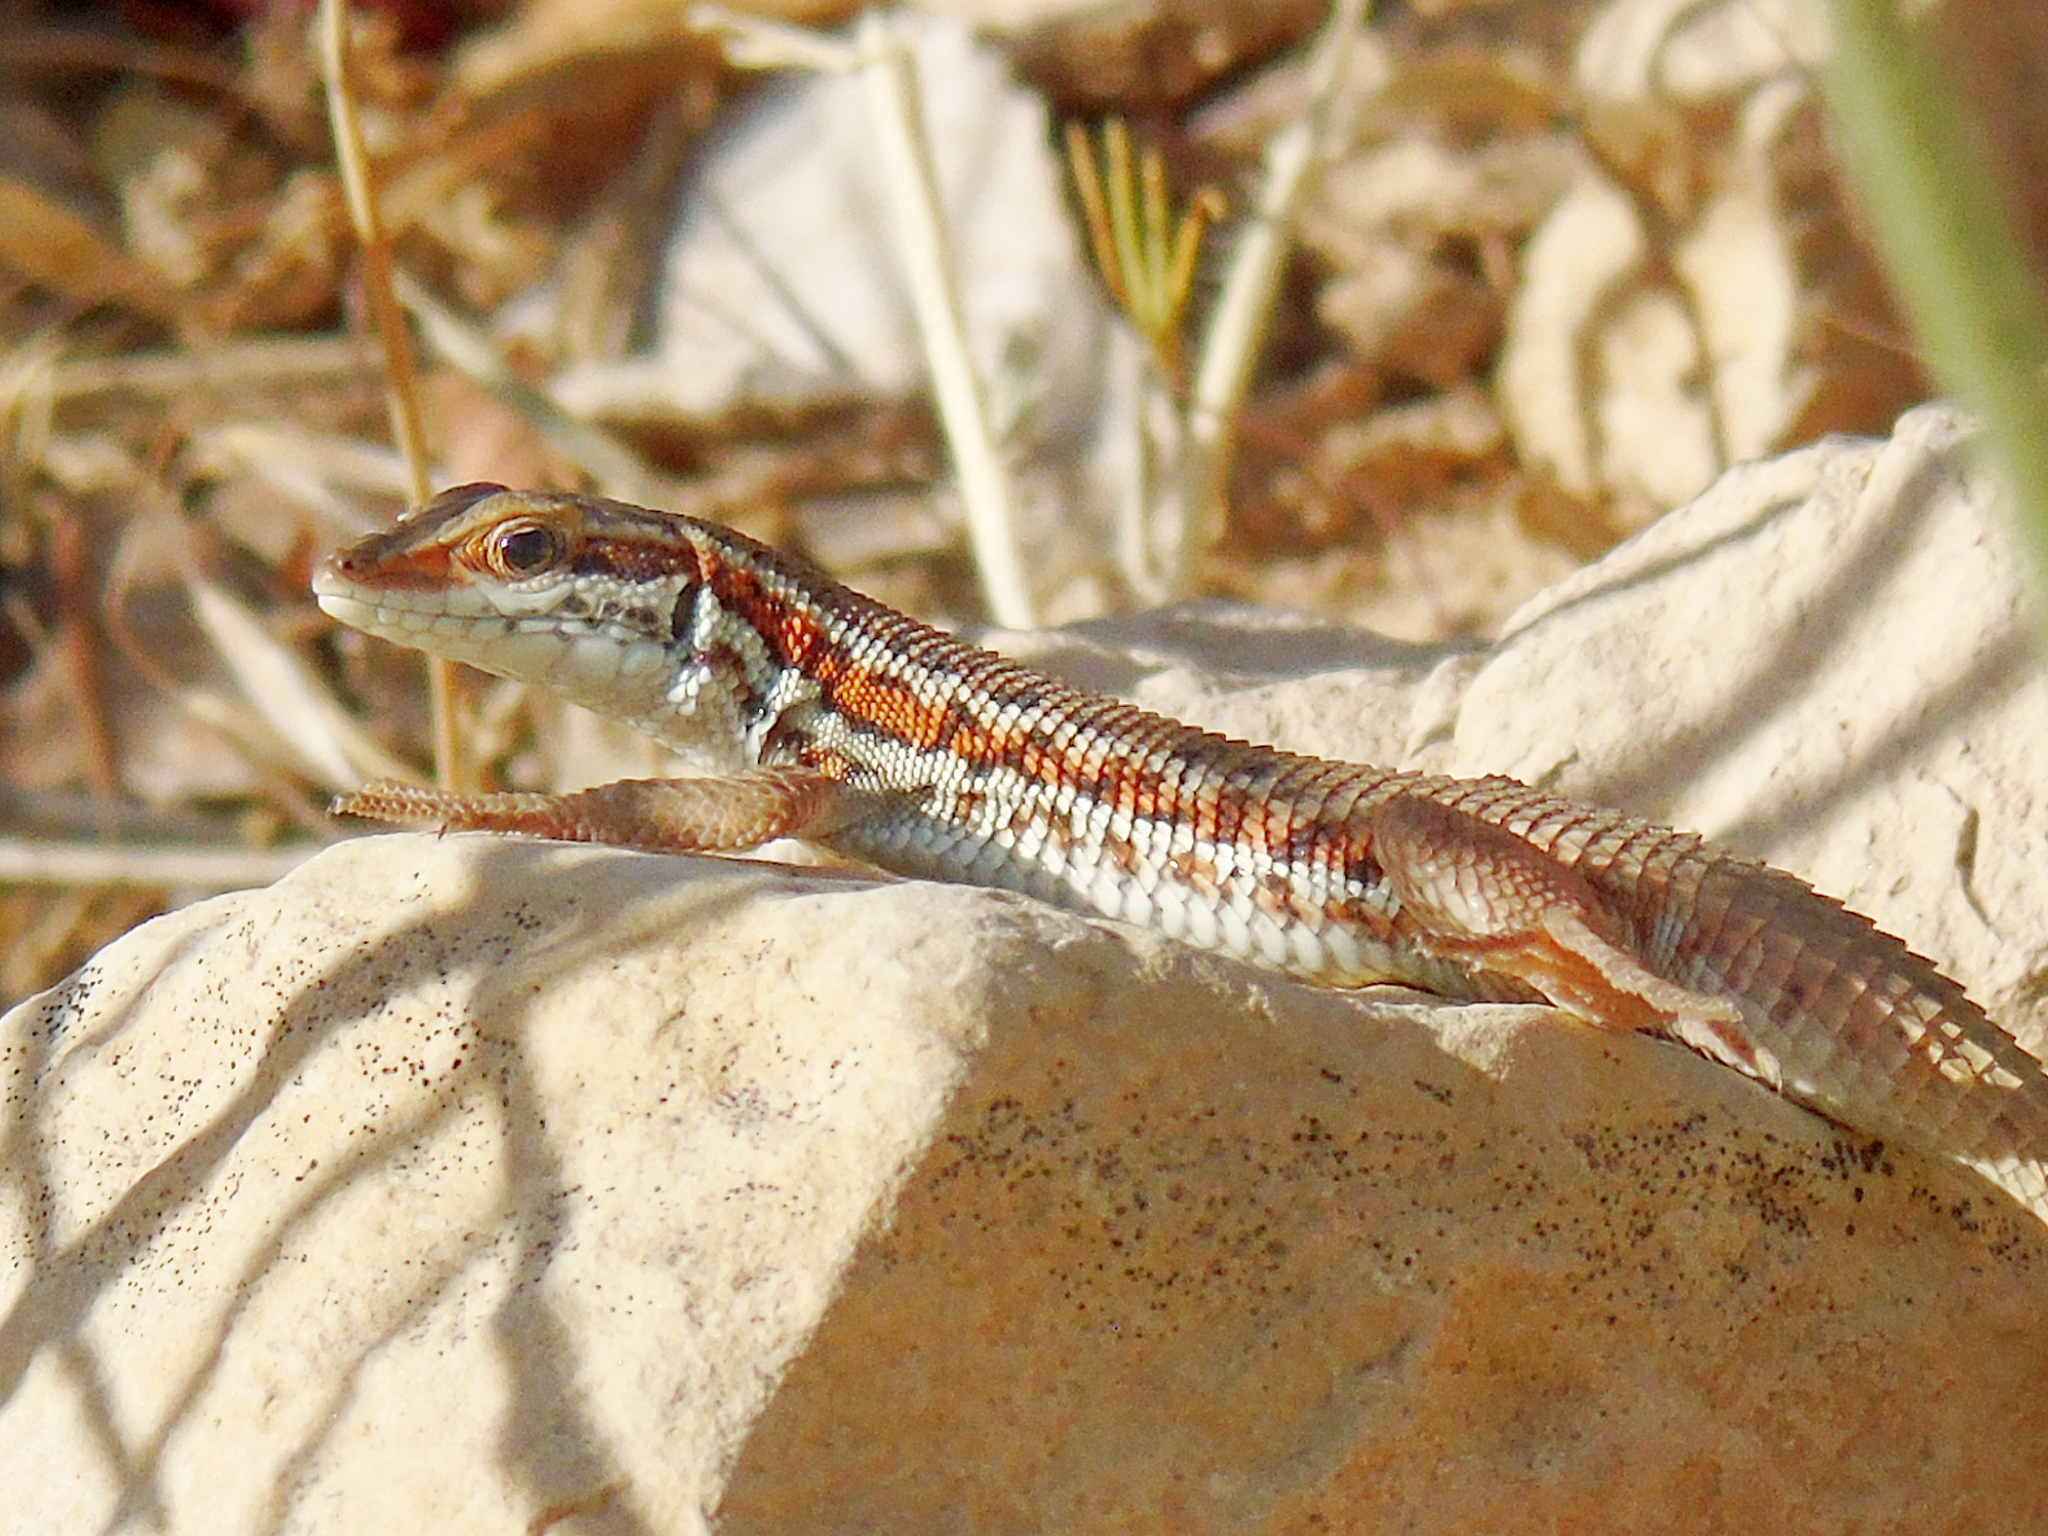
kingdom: Animalia
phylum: Chordata
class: Squamata
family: Lacertidae
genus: Ophisops
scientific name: Ophisops elegans
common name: Snake-eyed lizard
